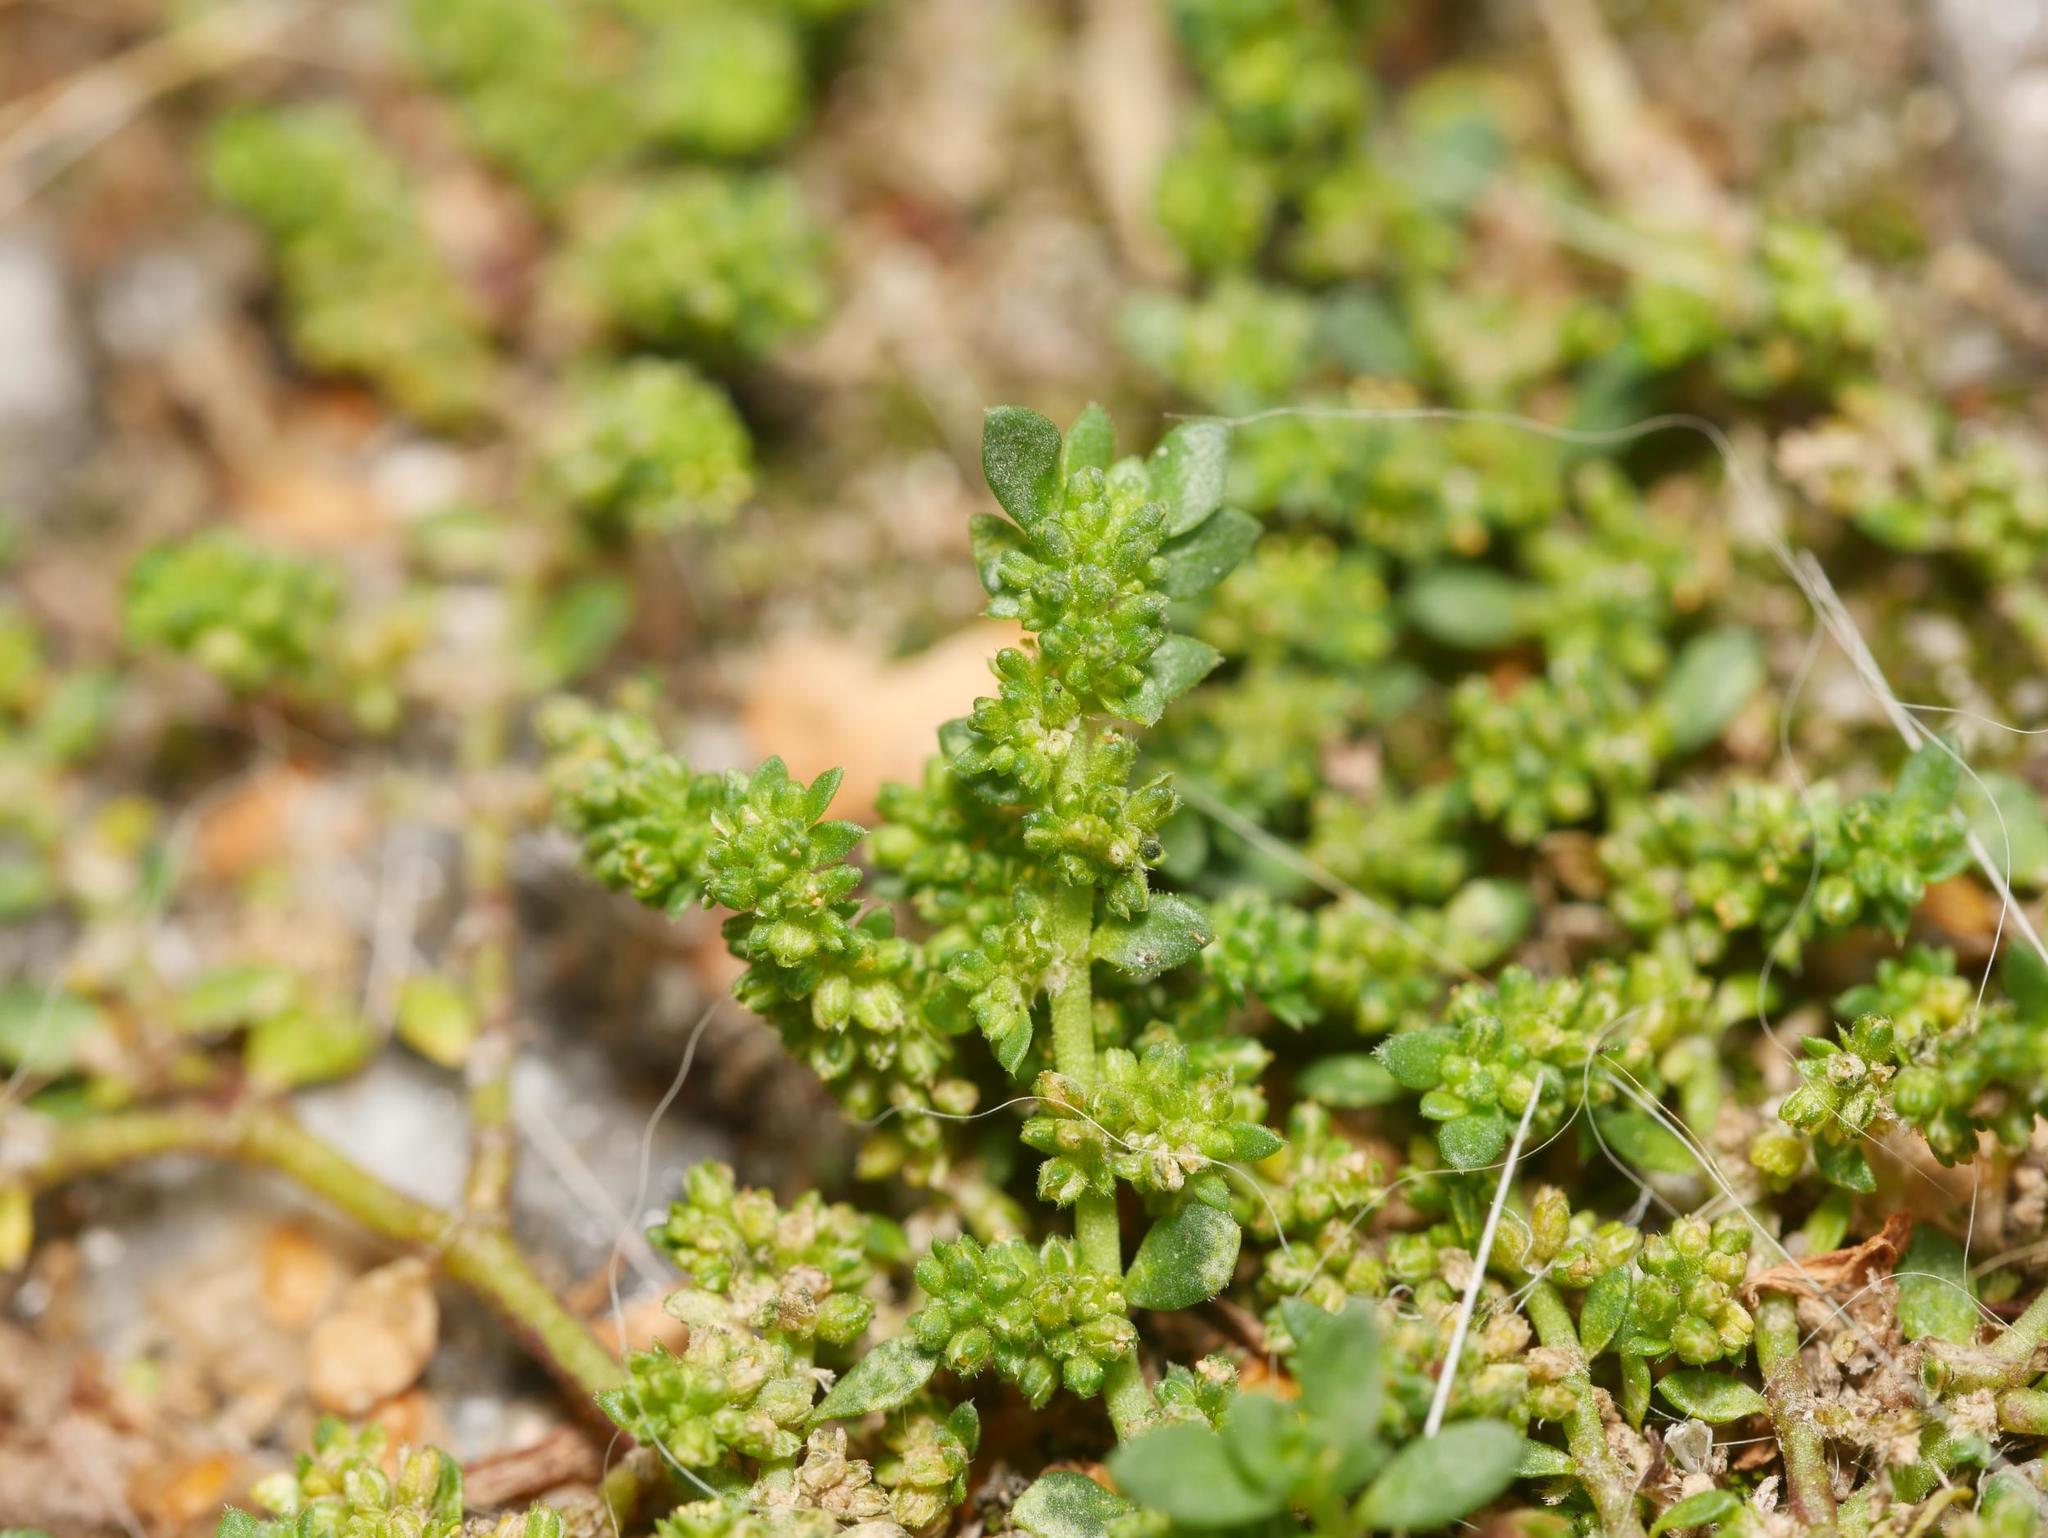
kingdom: Plantae
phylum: Tracheophyta
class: Magnoliopsida
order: Caryophyllales
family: Caryophyllaceae
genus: Herniaria
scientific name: Herniaria glabra
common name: Smooth rupturewort
